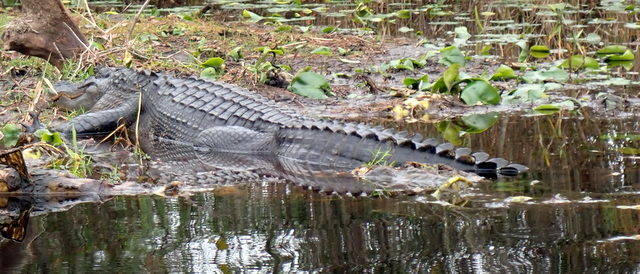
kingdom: Animalia
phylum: Chordata
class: Crocodylia
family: Alligatoridae
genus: Alligator
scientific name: Alligator mississippiensis
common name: American alligator
